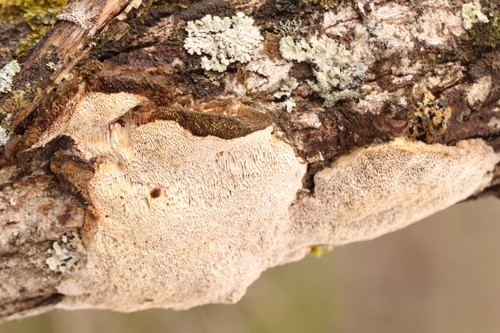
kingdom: Fungi
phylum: Basidiomycota
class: Agaricomycetes
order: Polyporales
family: Polyporaceae
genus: Trametes
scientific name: Trametes trogii
